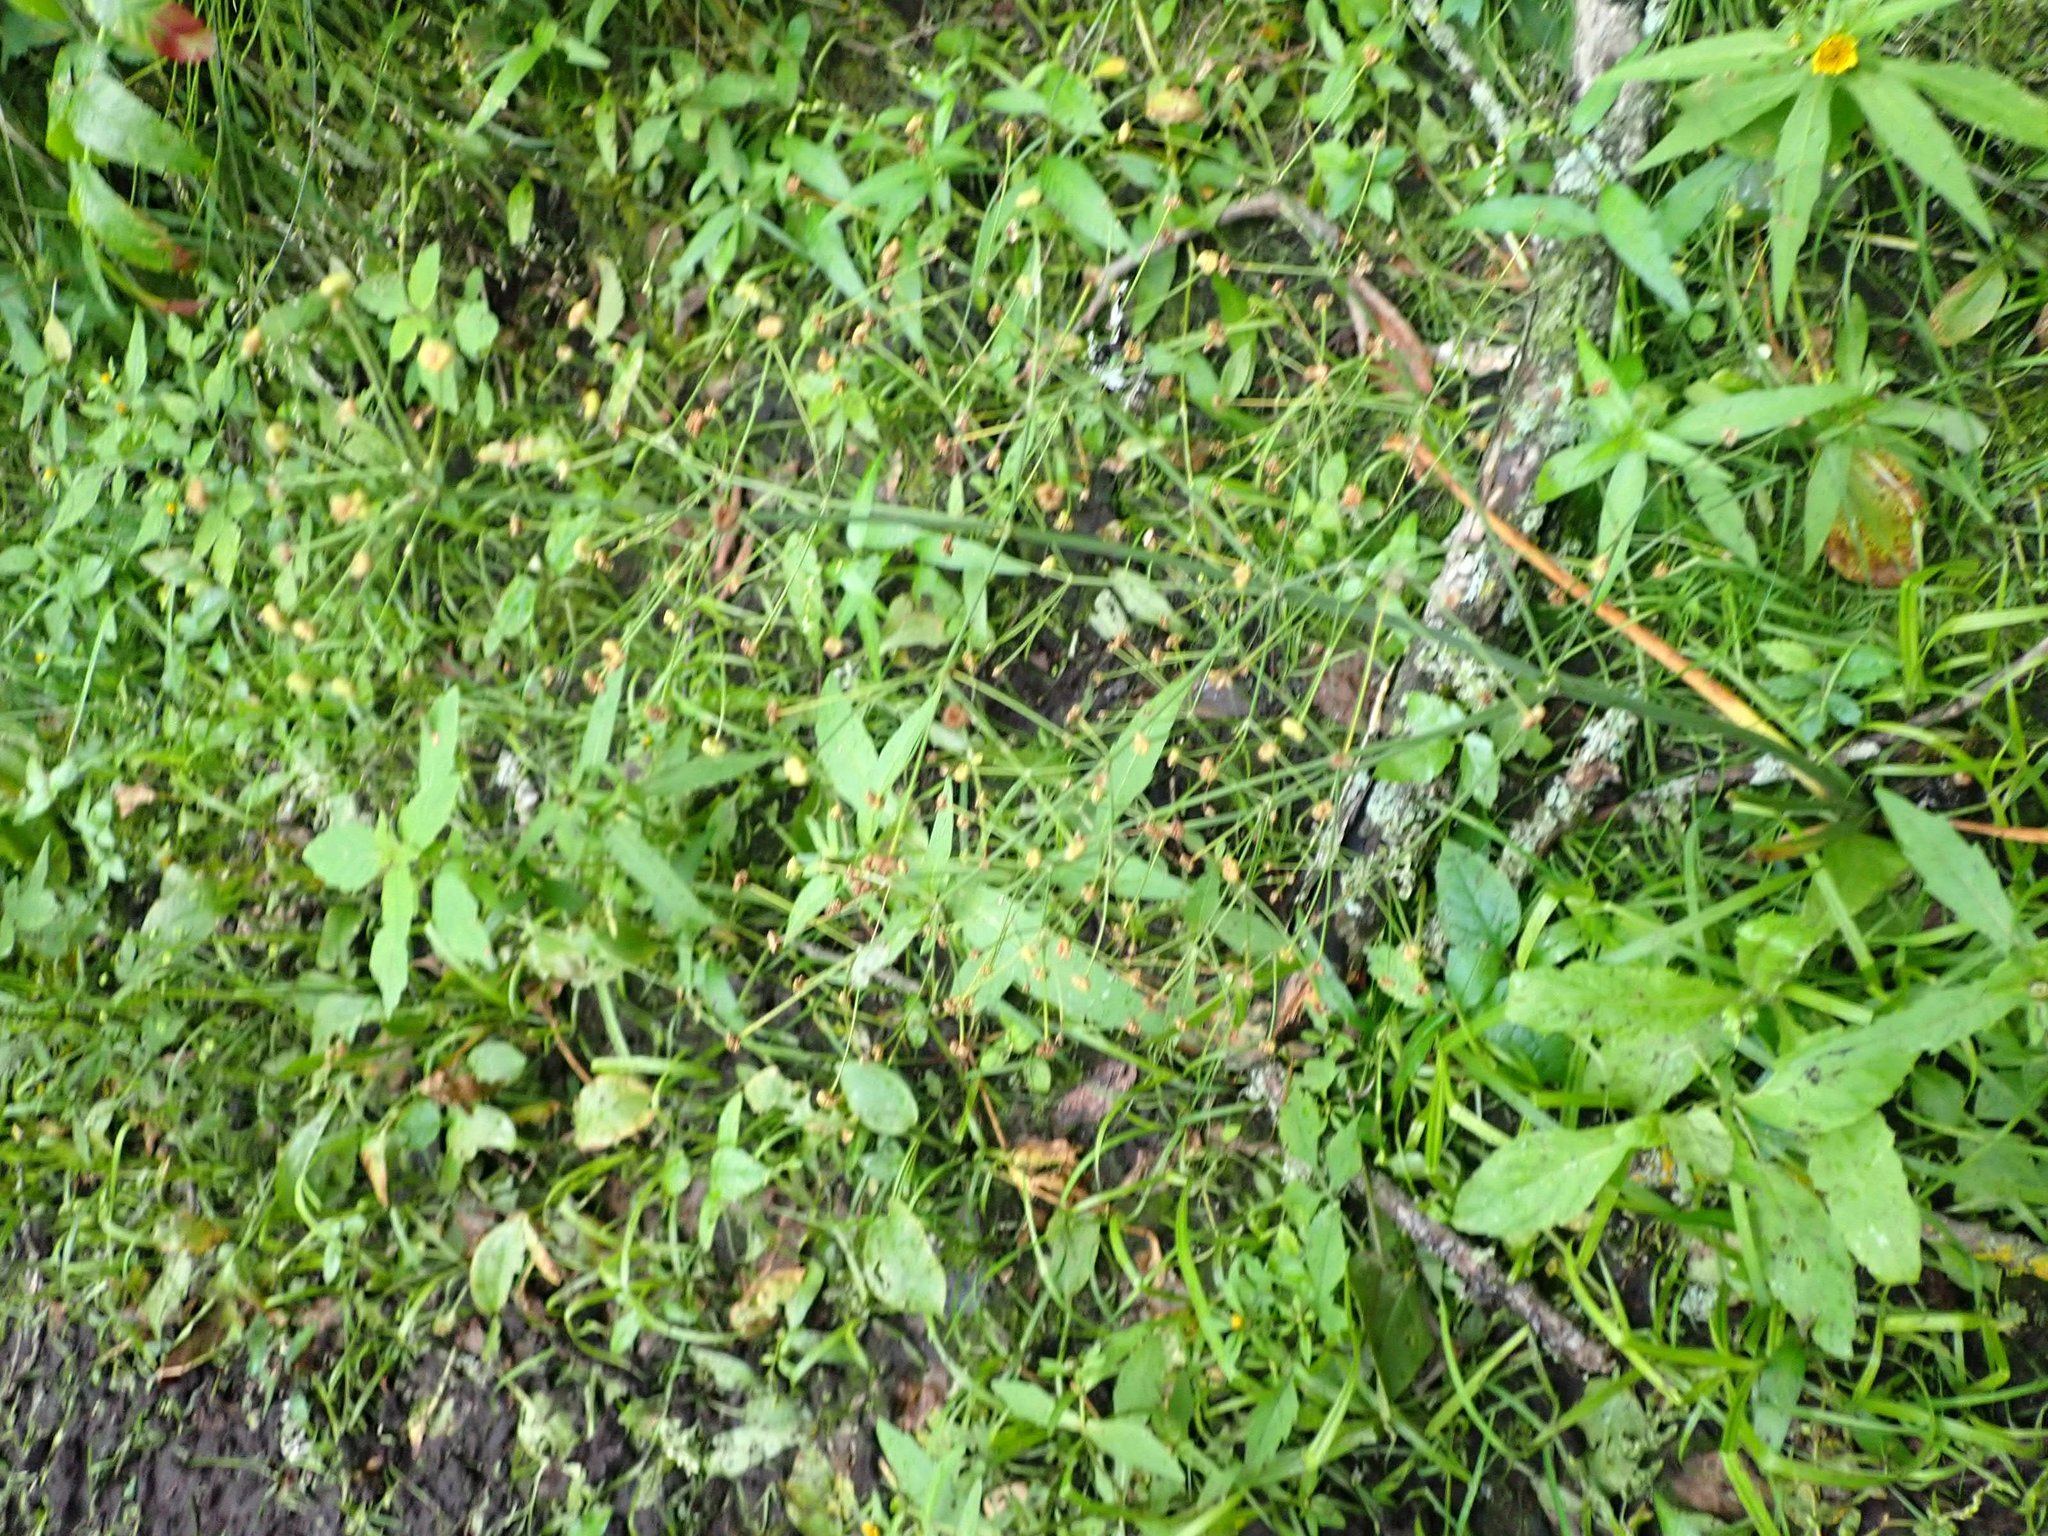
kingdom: Plantae
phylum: Tracheophyta
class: Liliopsida
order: Alismatales
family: Alismataceae
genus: Alisma
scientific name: Alisma triviale
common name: Northern water-plantain
